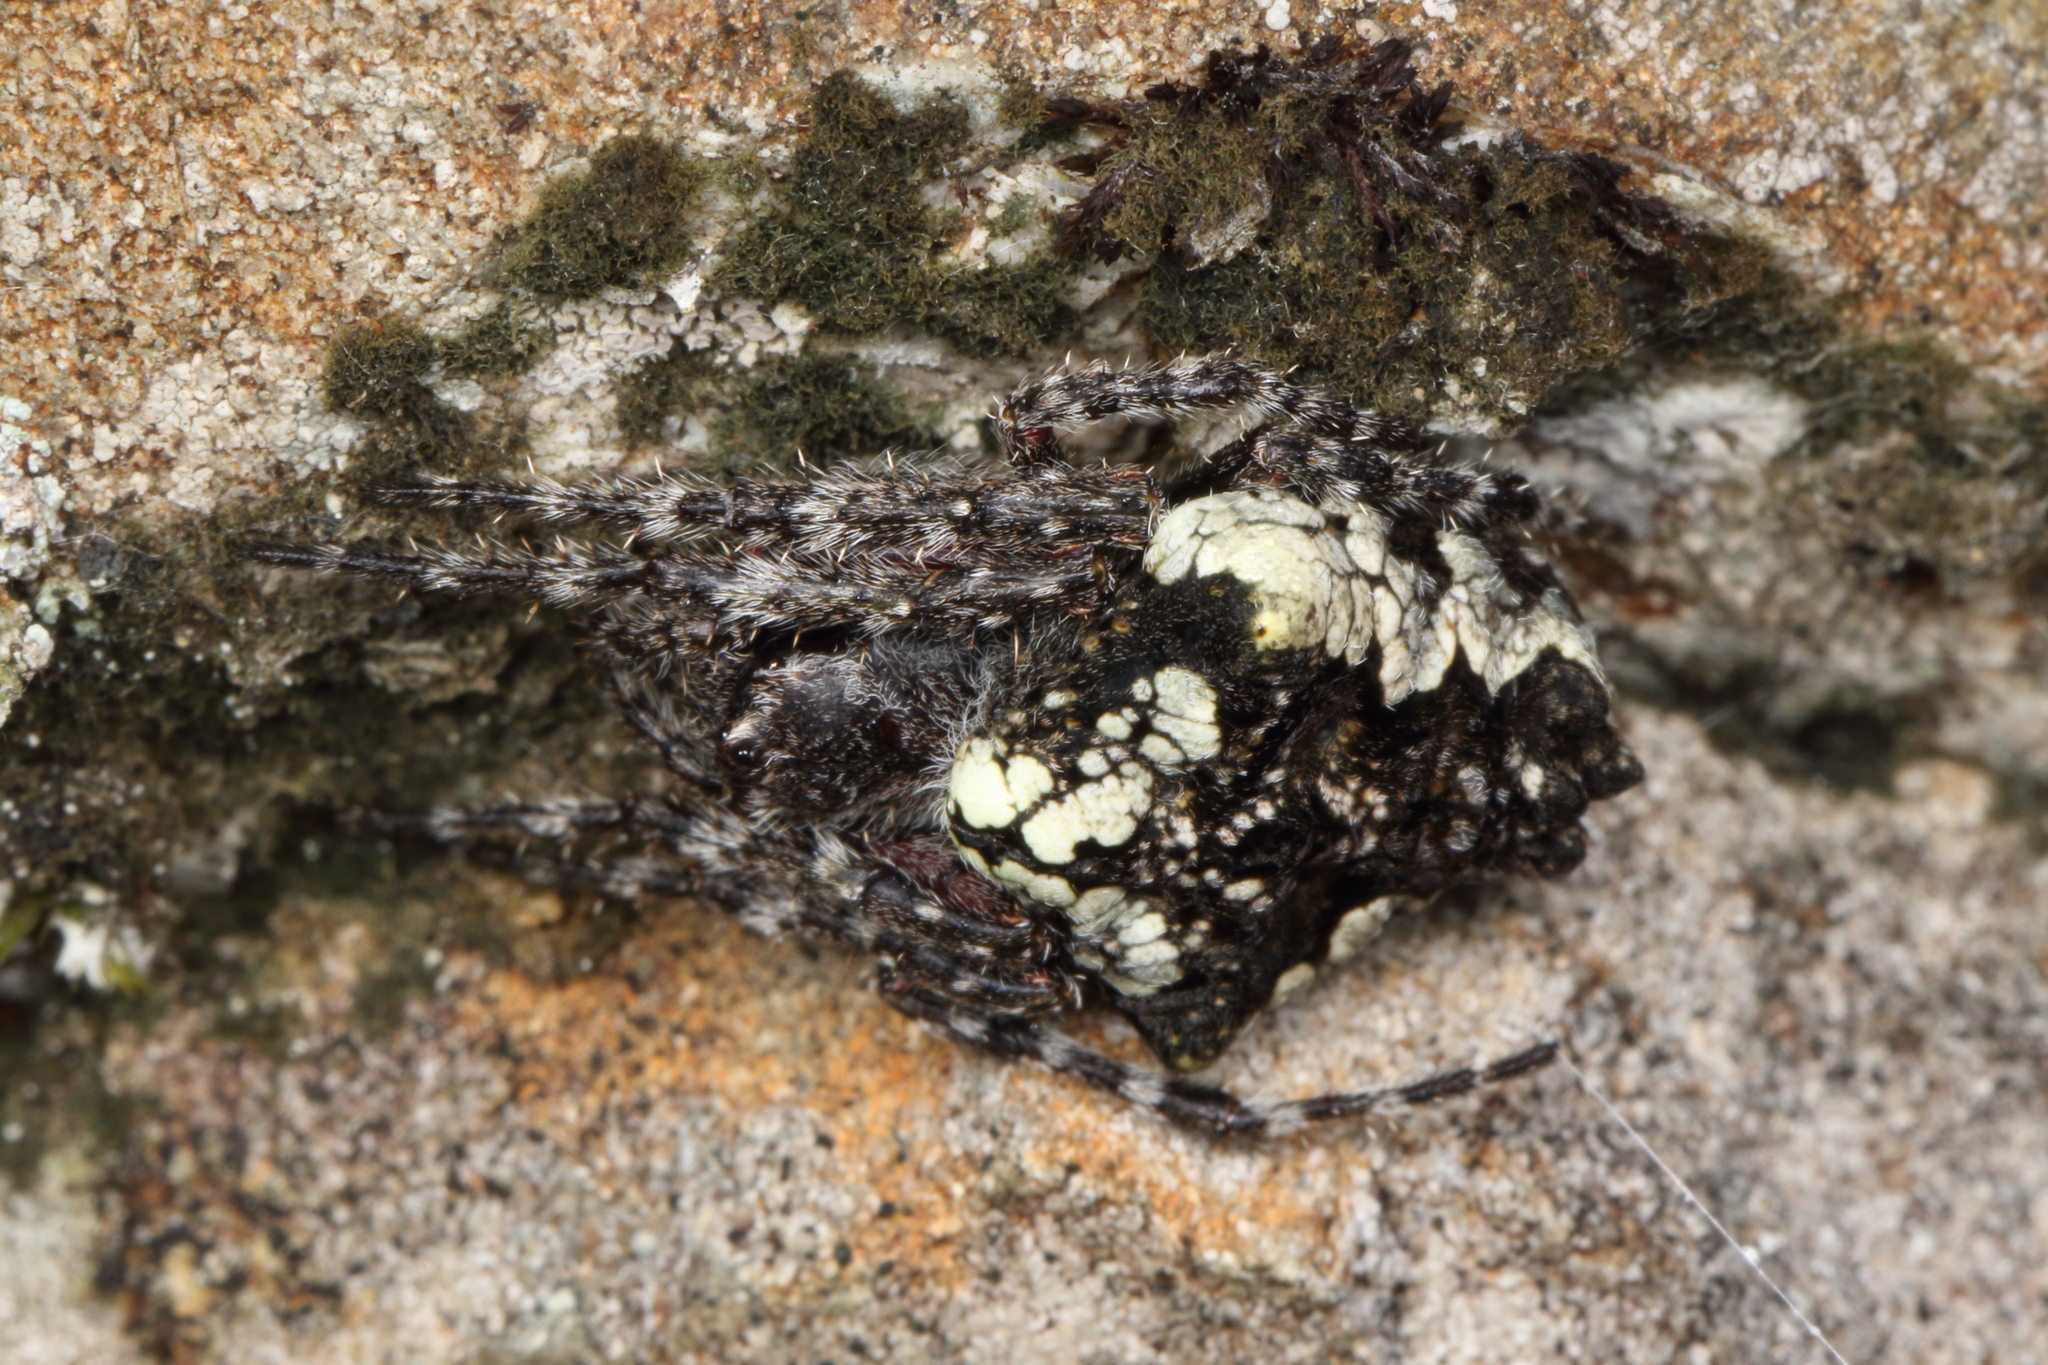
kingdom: Animalia
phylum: Arthropoda
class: Arachnida
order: Araneae
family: Araneidae
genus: Eriophora
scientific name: Eriophora pustulosa
